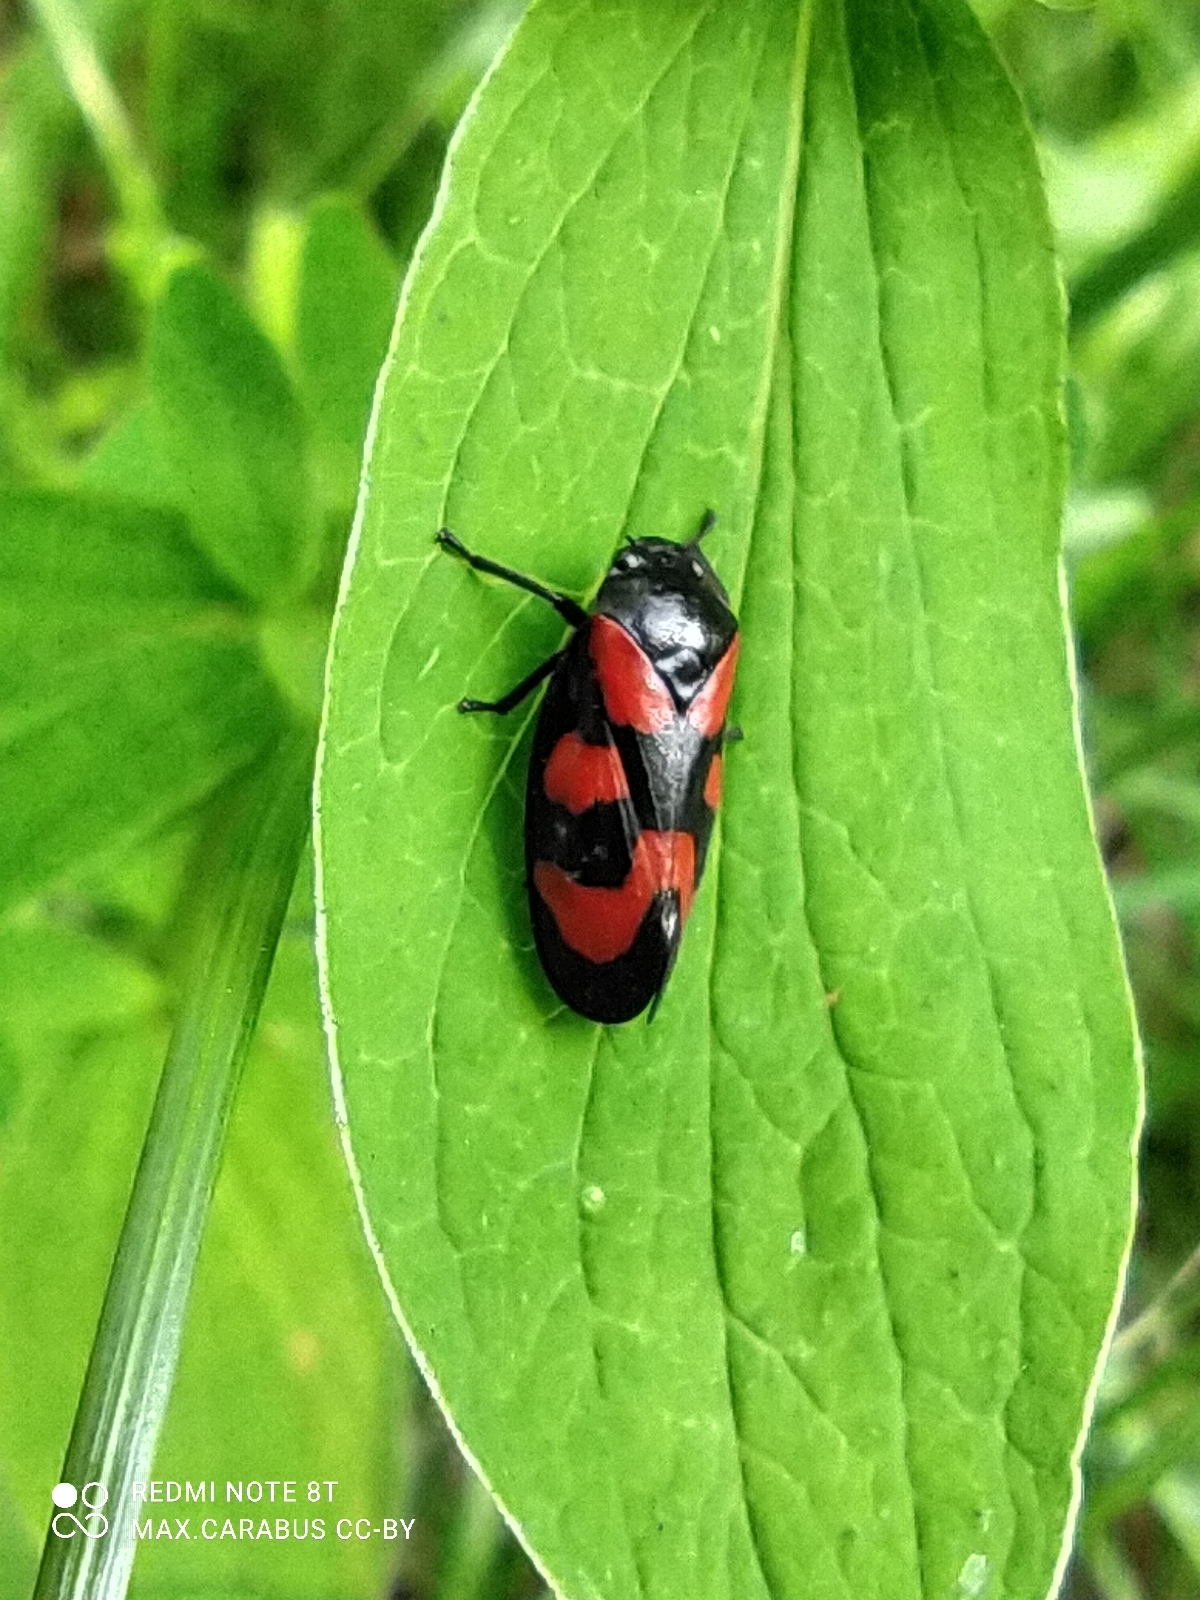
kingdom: Animalia
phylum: Arthropoda
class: Insecta
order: Hemiptera
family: Cercopidae
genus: Cercopis
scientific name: Cercopis vulnerata
